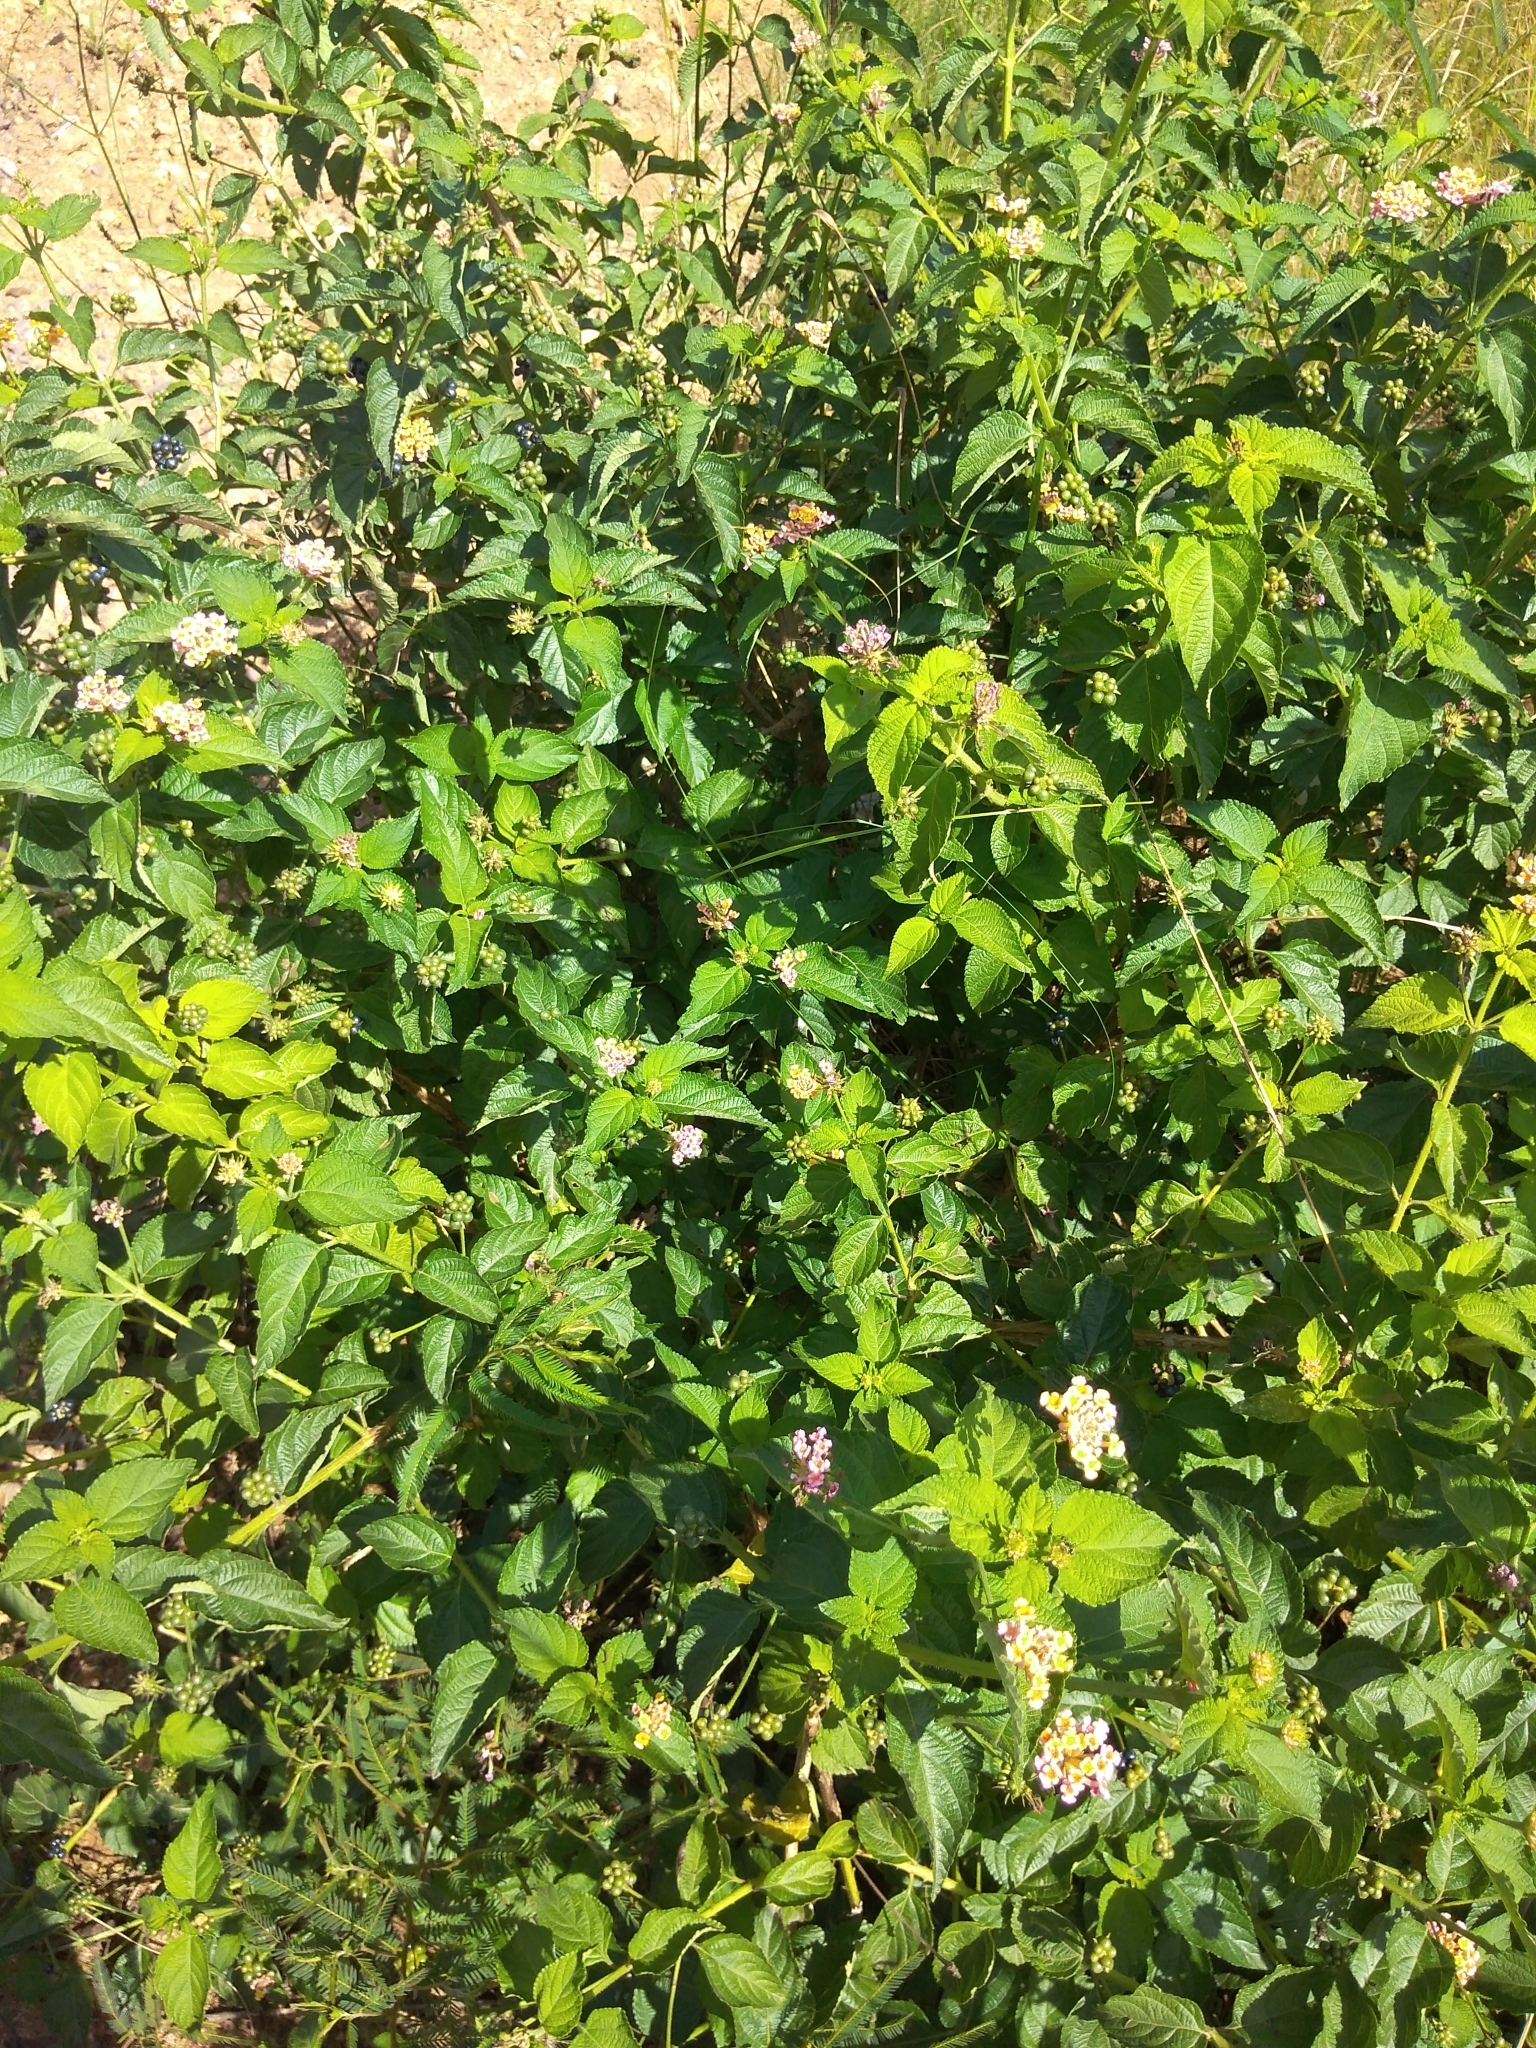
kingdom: Plantae
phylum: Tracheophyta
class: Magnoliopsida
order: Lamiales
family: Verbenaceae
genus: Lantana
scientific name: Lantana camara
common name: Lantana
